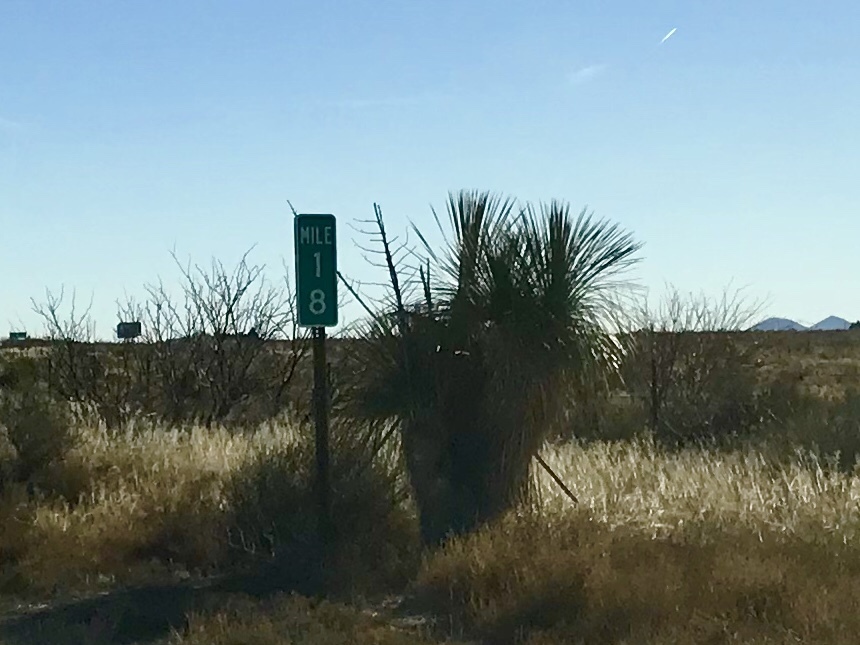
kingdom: Plantae
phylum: Tracheophyta
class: Liliopsida
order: Asparagales
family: Asparagaceae
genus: Yucca
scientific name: Yucca elata
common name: Palmella
